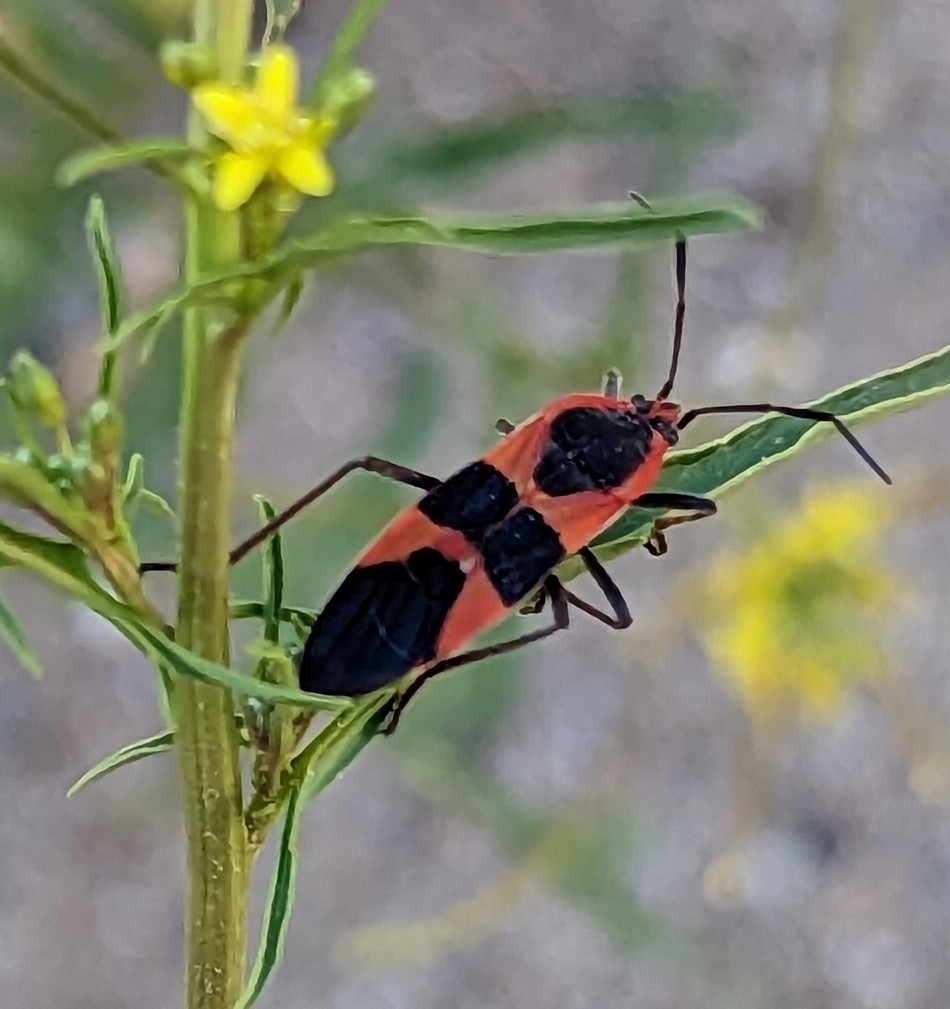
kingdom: Animalia
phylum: Arthropoda
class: Insecta
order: Hemiptera
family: Lygaeidae
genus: Oncopeltus
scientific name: Oncopeltus fasciatus
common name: Large milkweed bug
